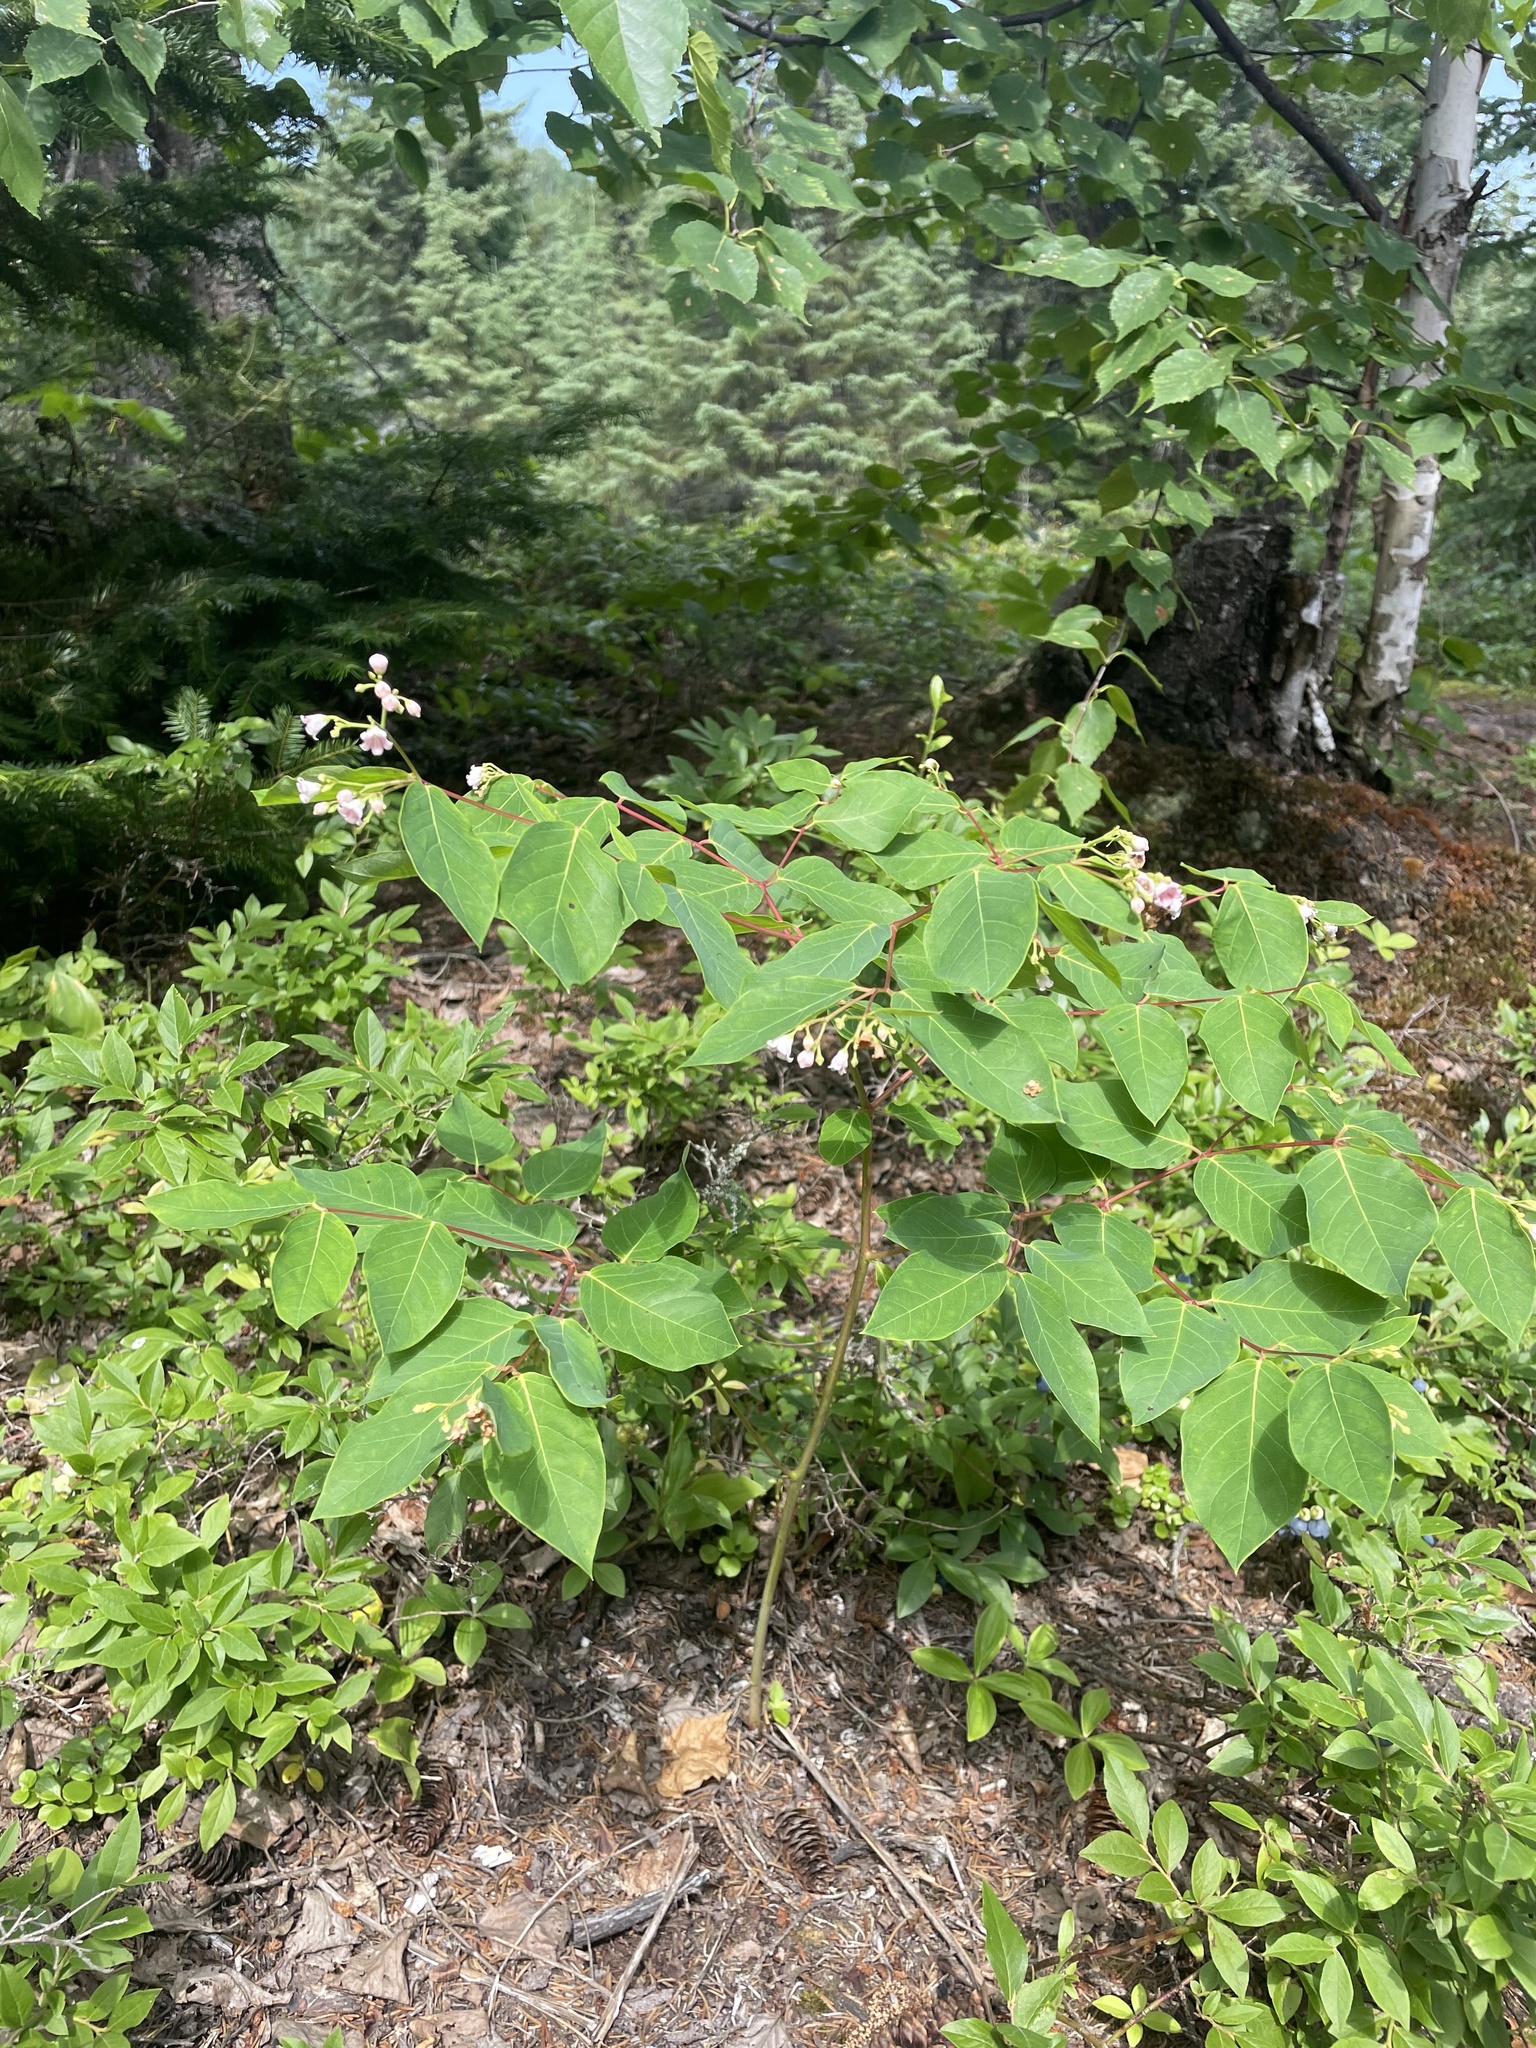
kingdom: Plantae
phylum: Tracheophyta
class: Magnoliopsida
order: Gentianales
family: Apocynaceae
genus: Apocynum
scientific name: Apocynum androsaemifolium
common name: Spreading dogbane
